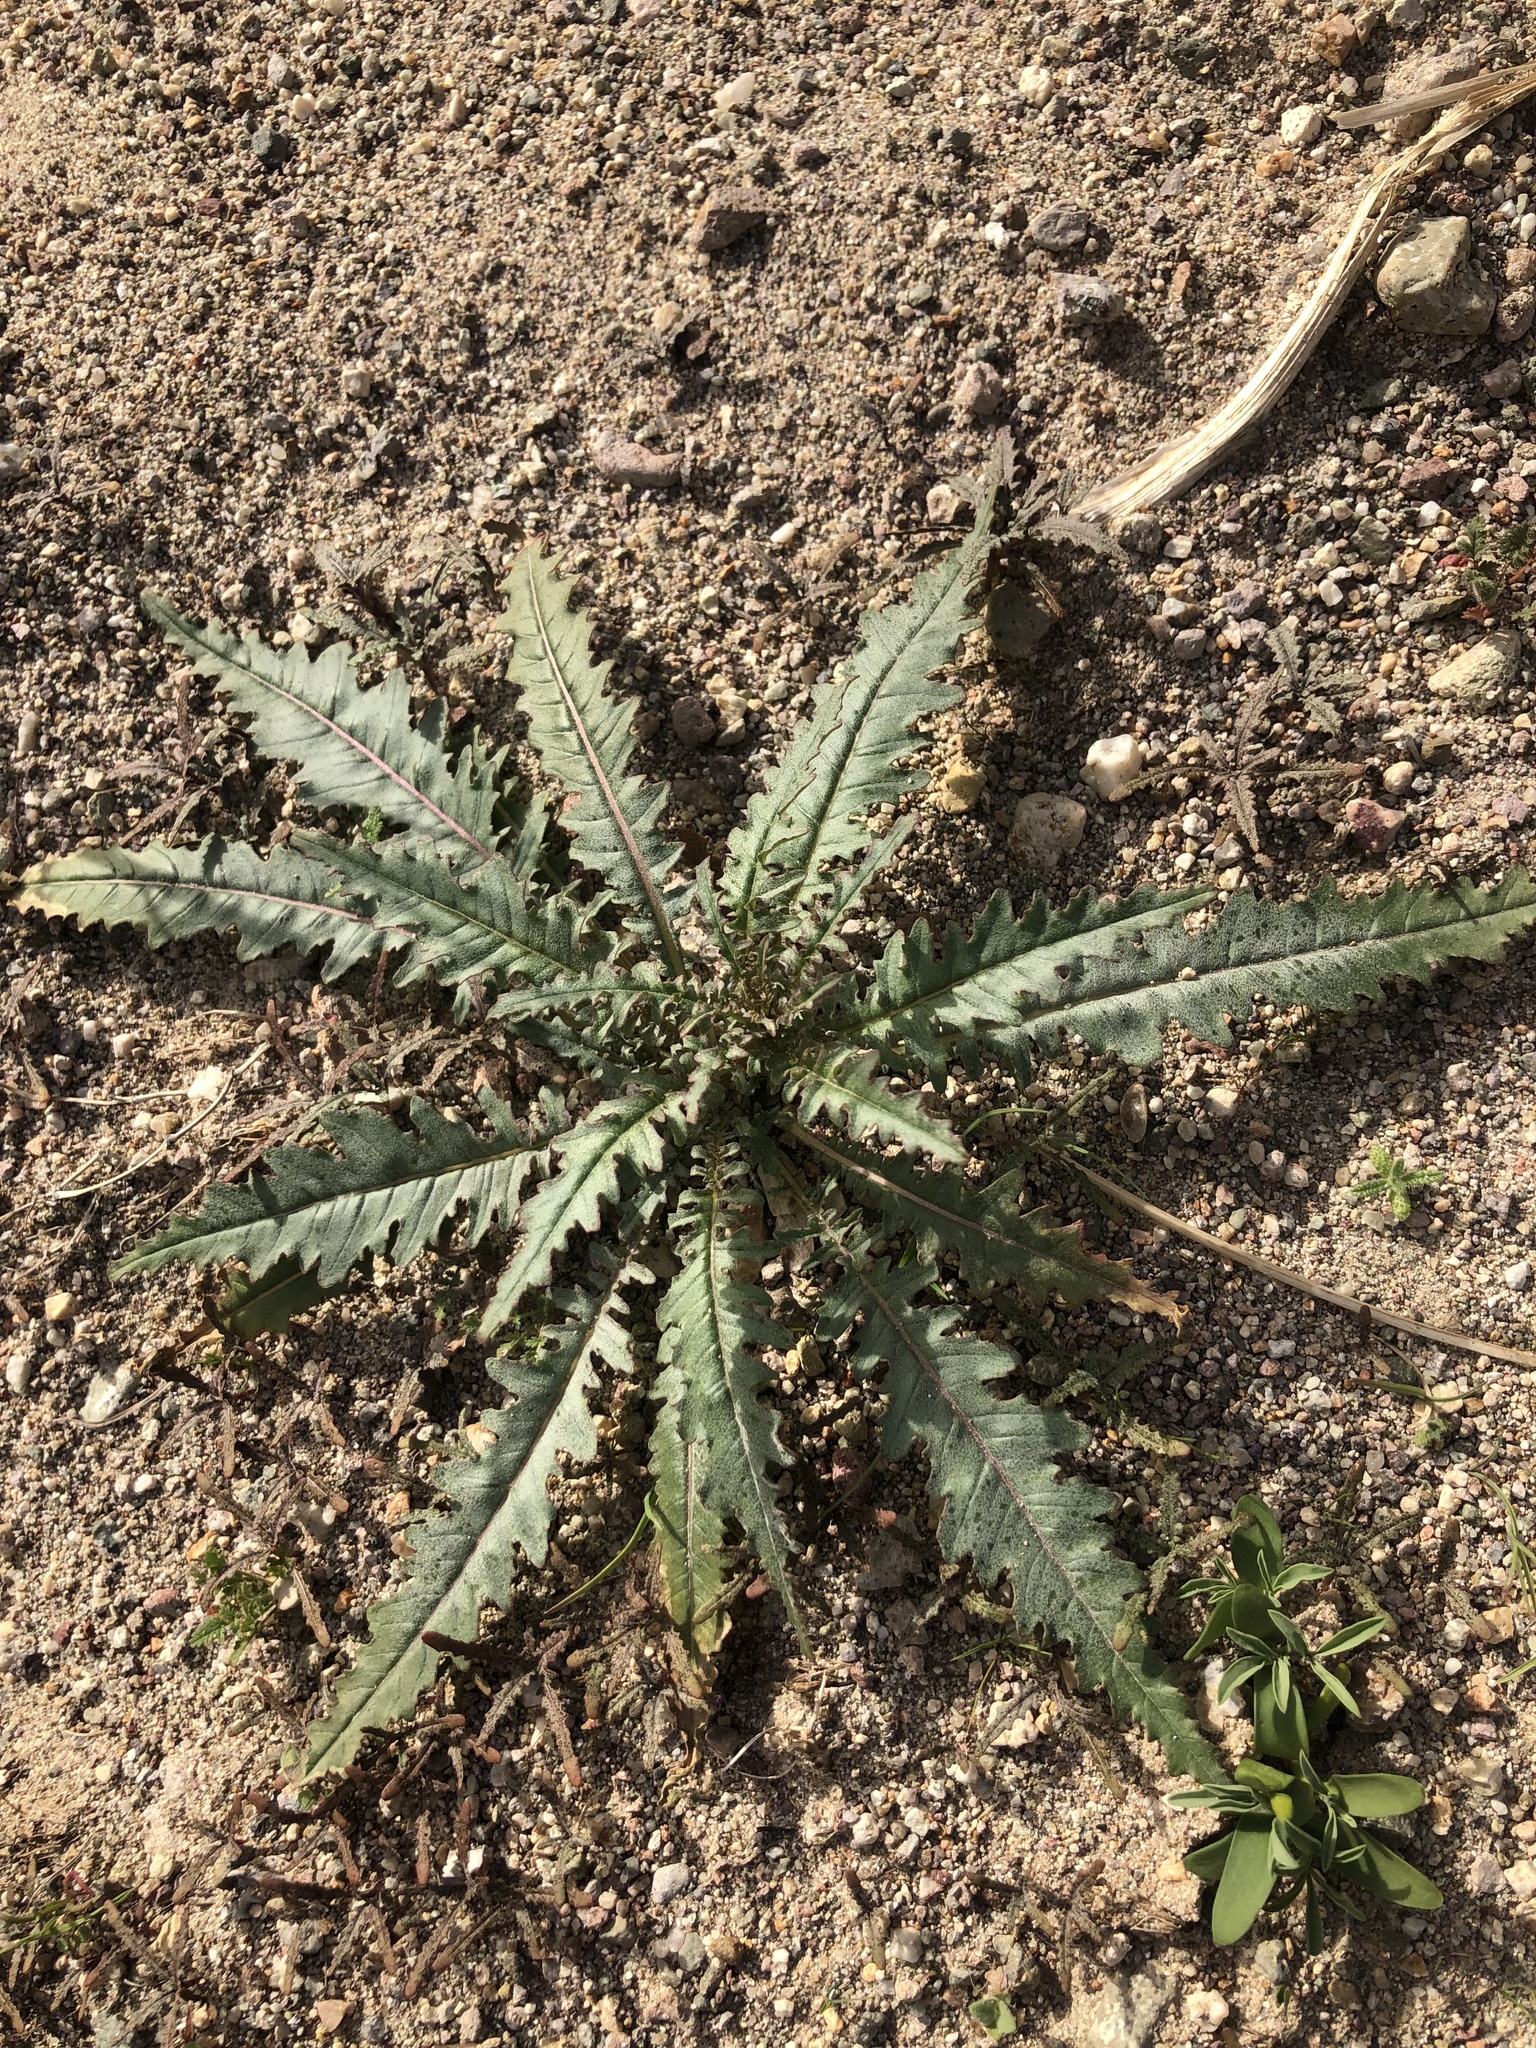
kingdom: Plantae
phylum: Tracheophyta
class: Magnoliopsida
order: Myrtales
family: Onagraceae
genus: Eulobus
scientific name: Eulobus californicus
